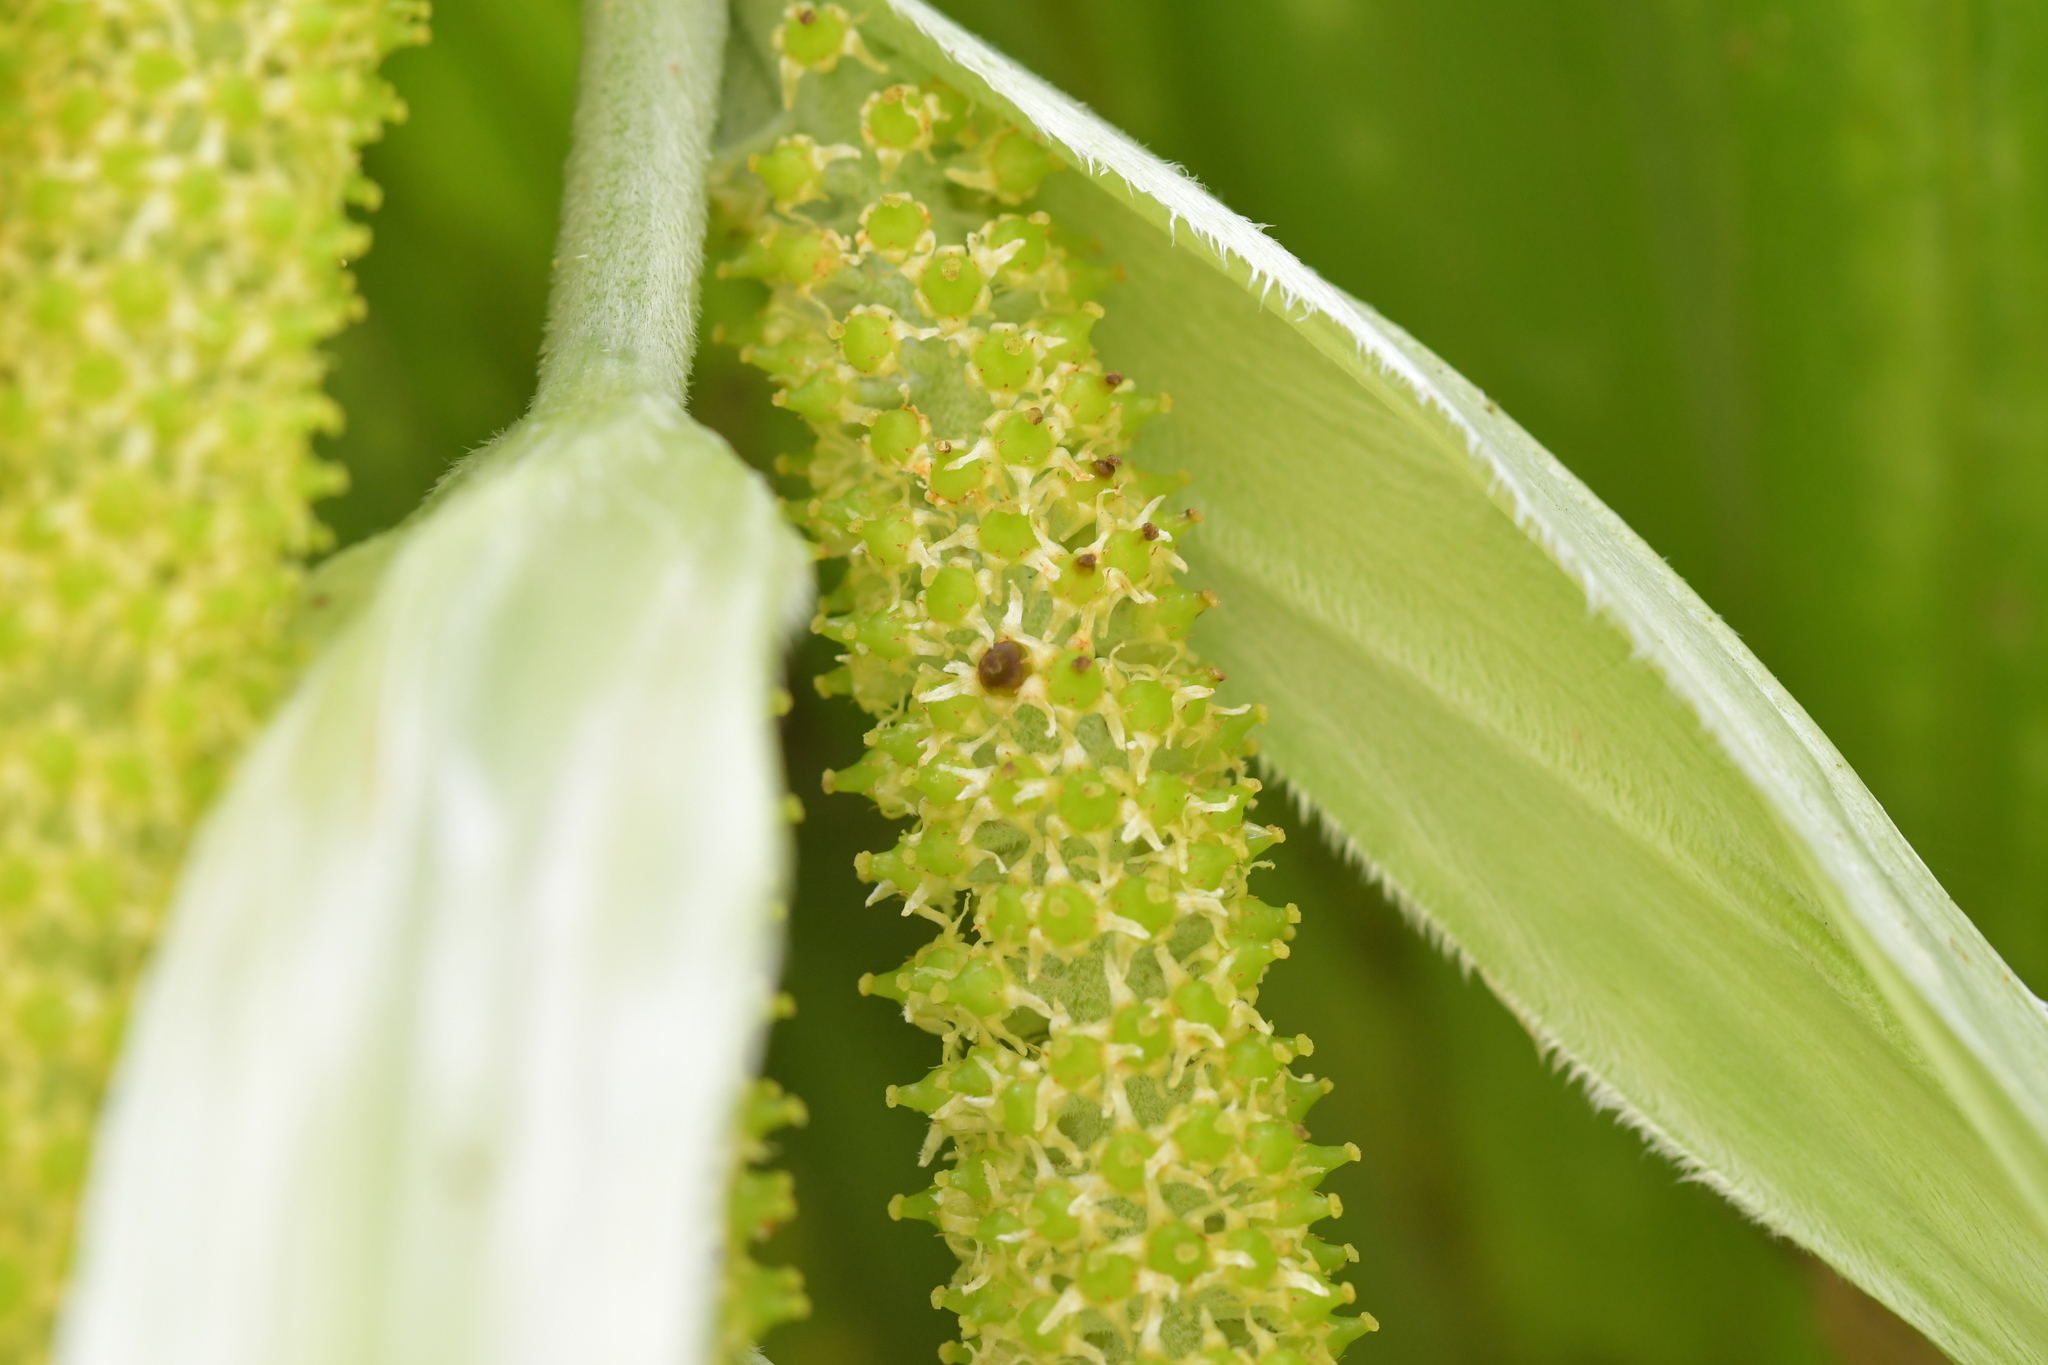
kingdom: Plantae
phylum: Tracheophyta
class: Liliopsida
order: Asparagales
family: Asteliaceae
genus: Astelia
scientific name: Astelia hastata
